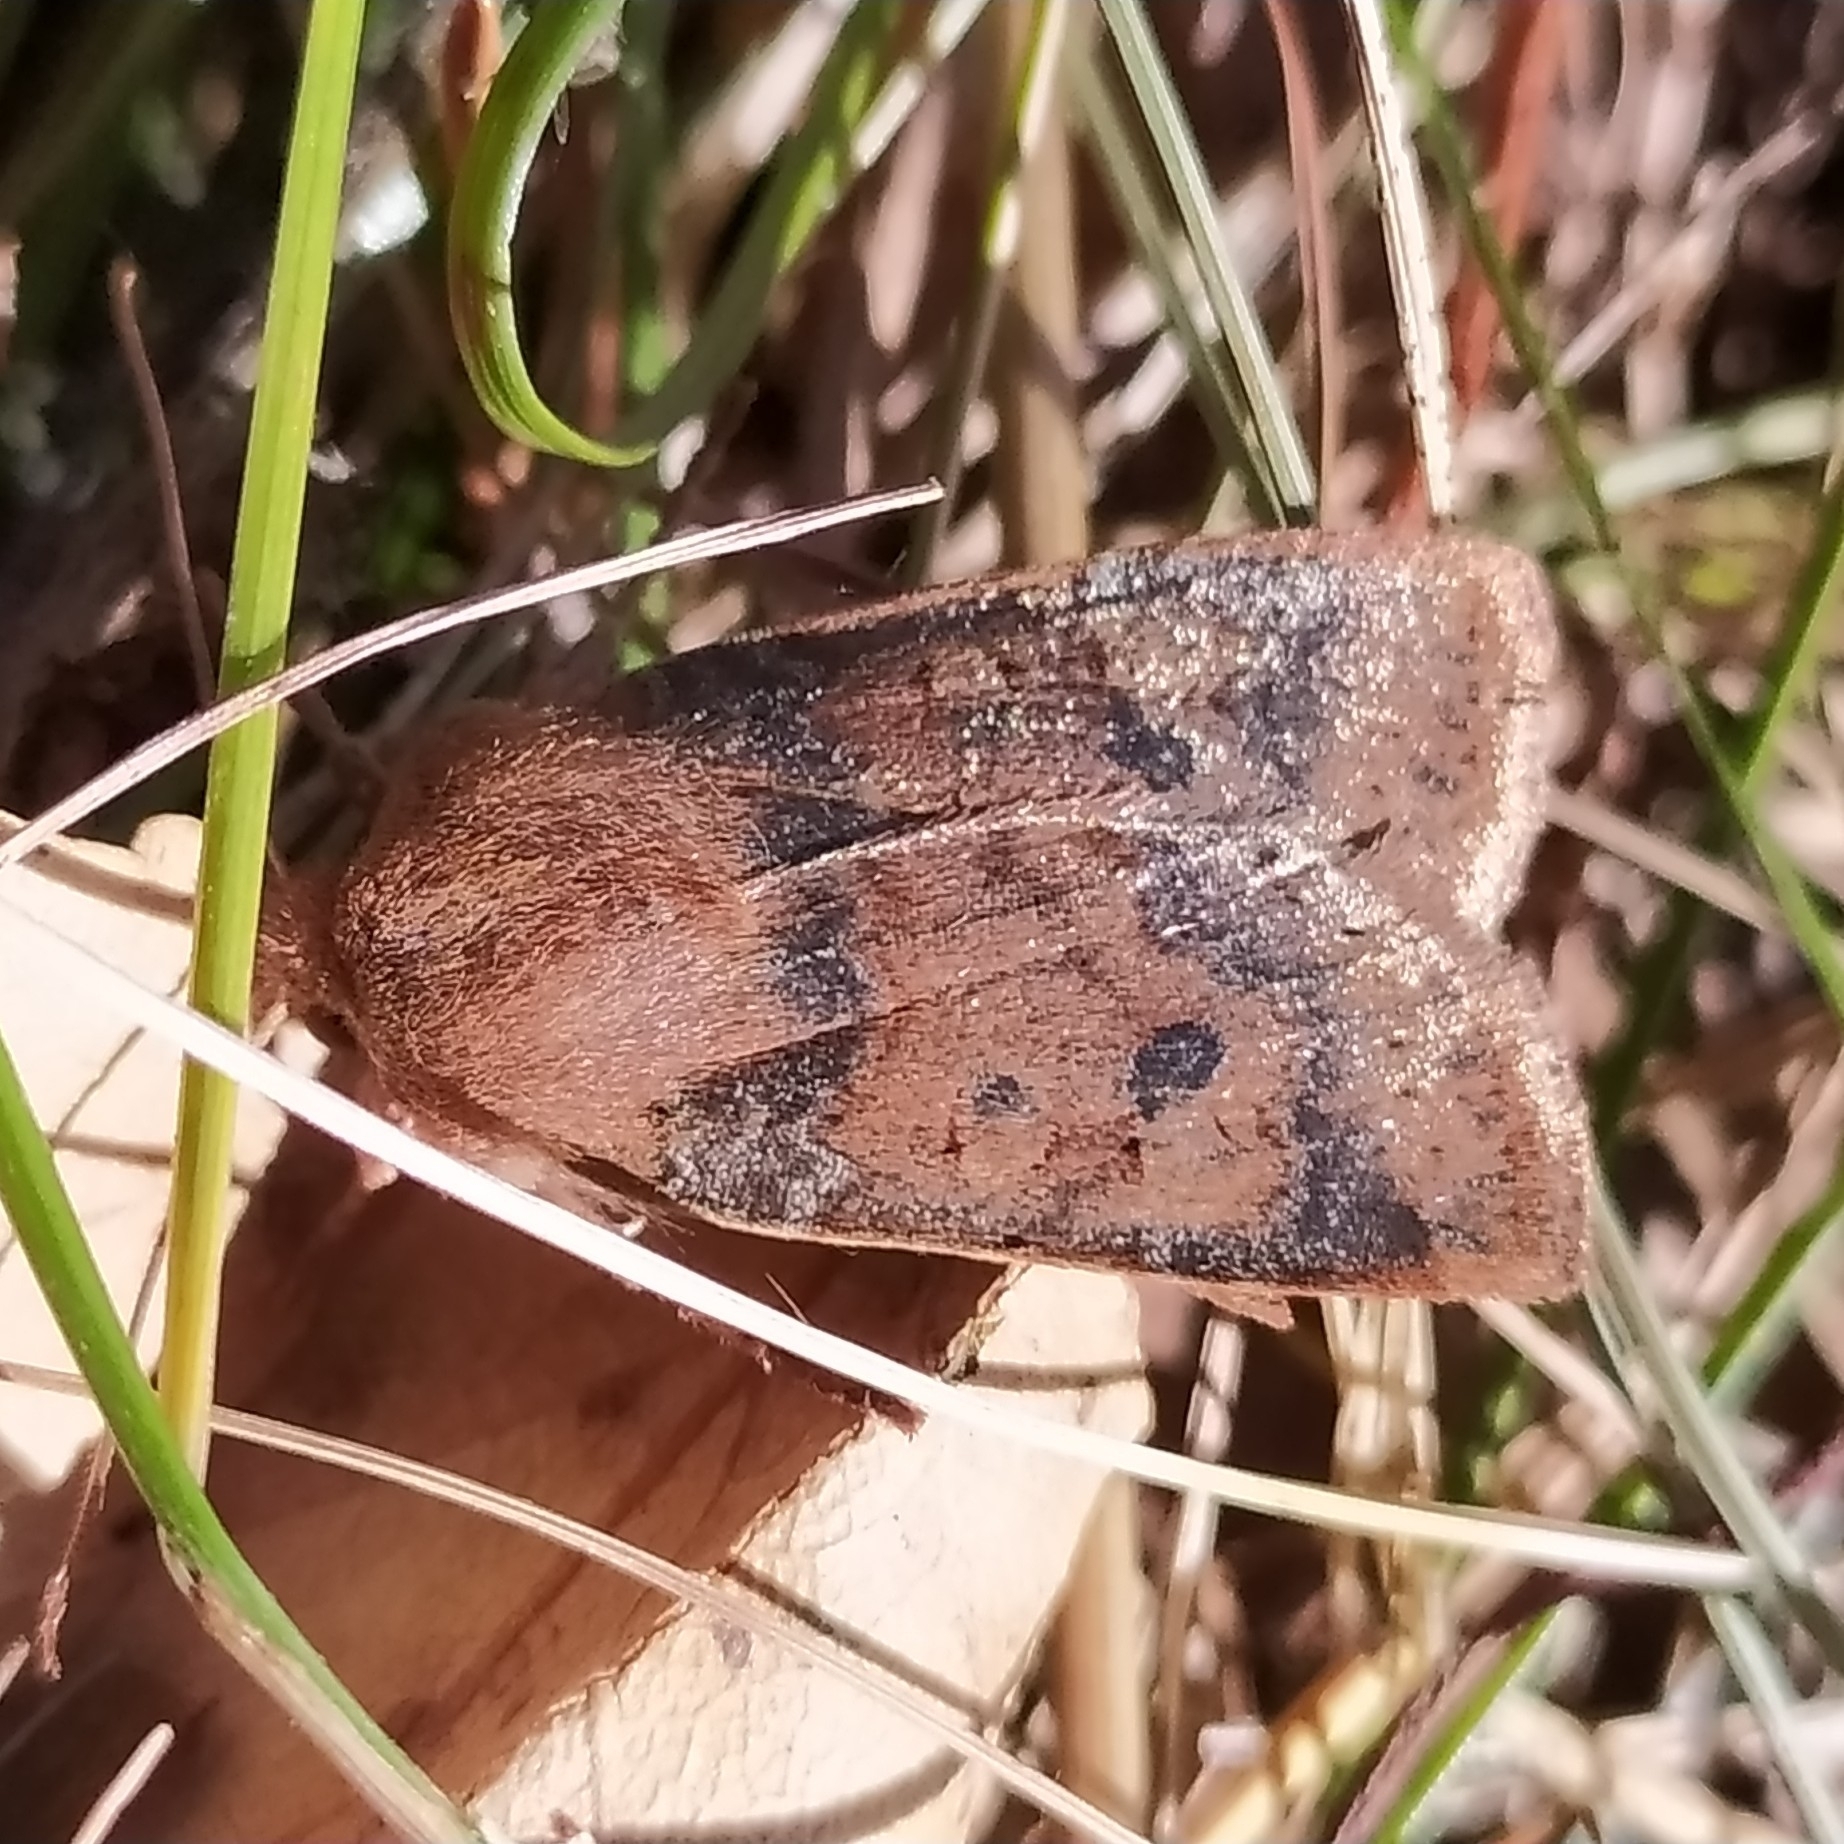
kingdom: Animalia
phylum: Arthropoda
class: Insecta
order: Lepidoptera
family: Noctuidae
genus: Conistra
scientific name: Conistra vaccinii
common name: Chestnut
